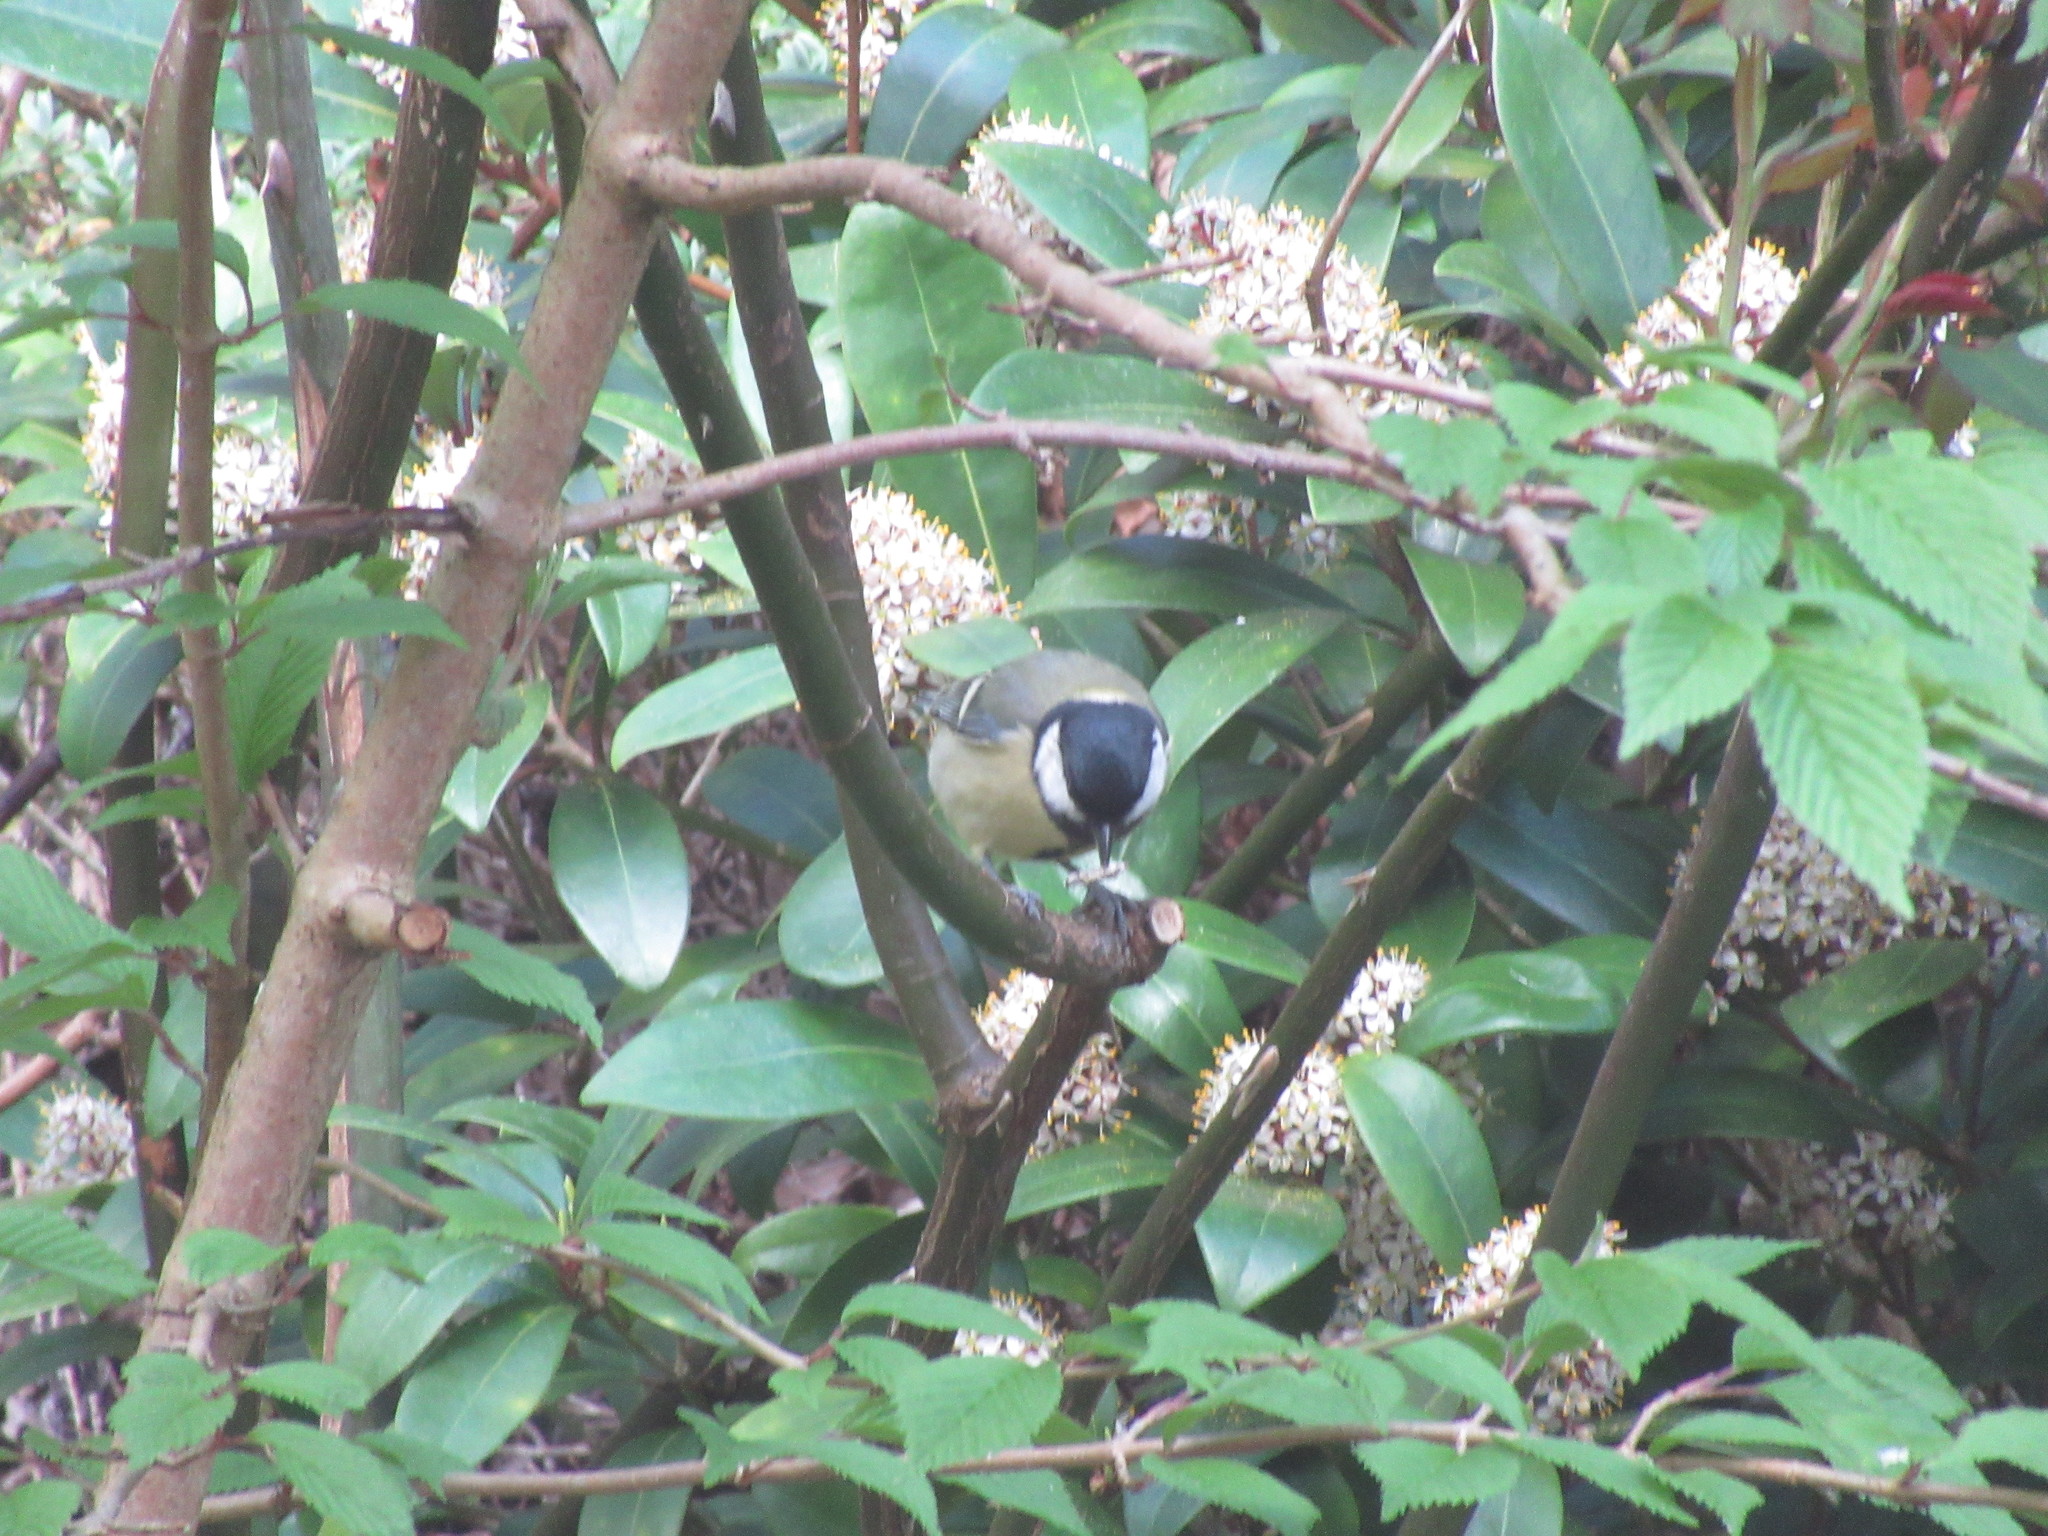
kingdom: Animalia
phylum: Chordata
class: Aves
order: Passeriformes
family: Paridae
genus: Parus
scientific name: Parus major
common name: Great tit
